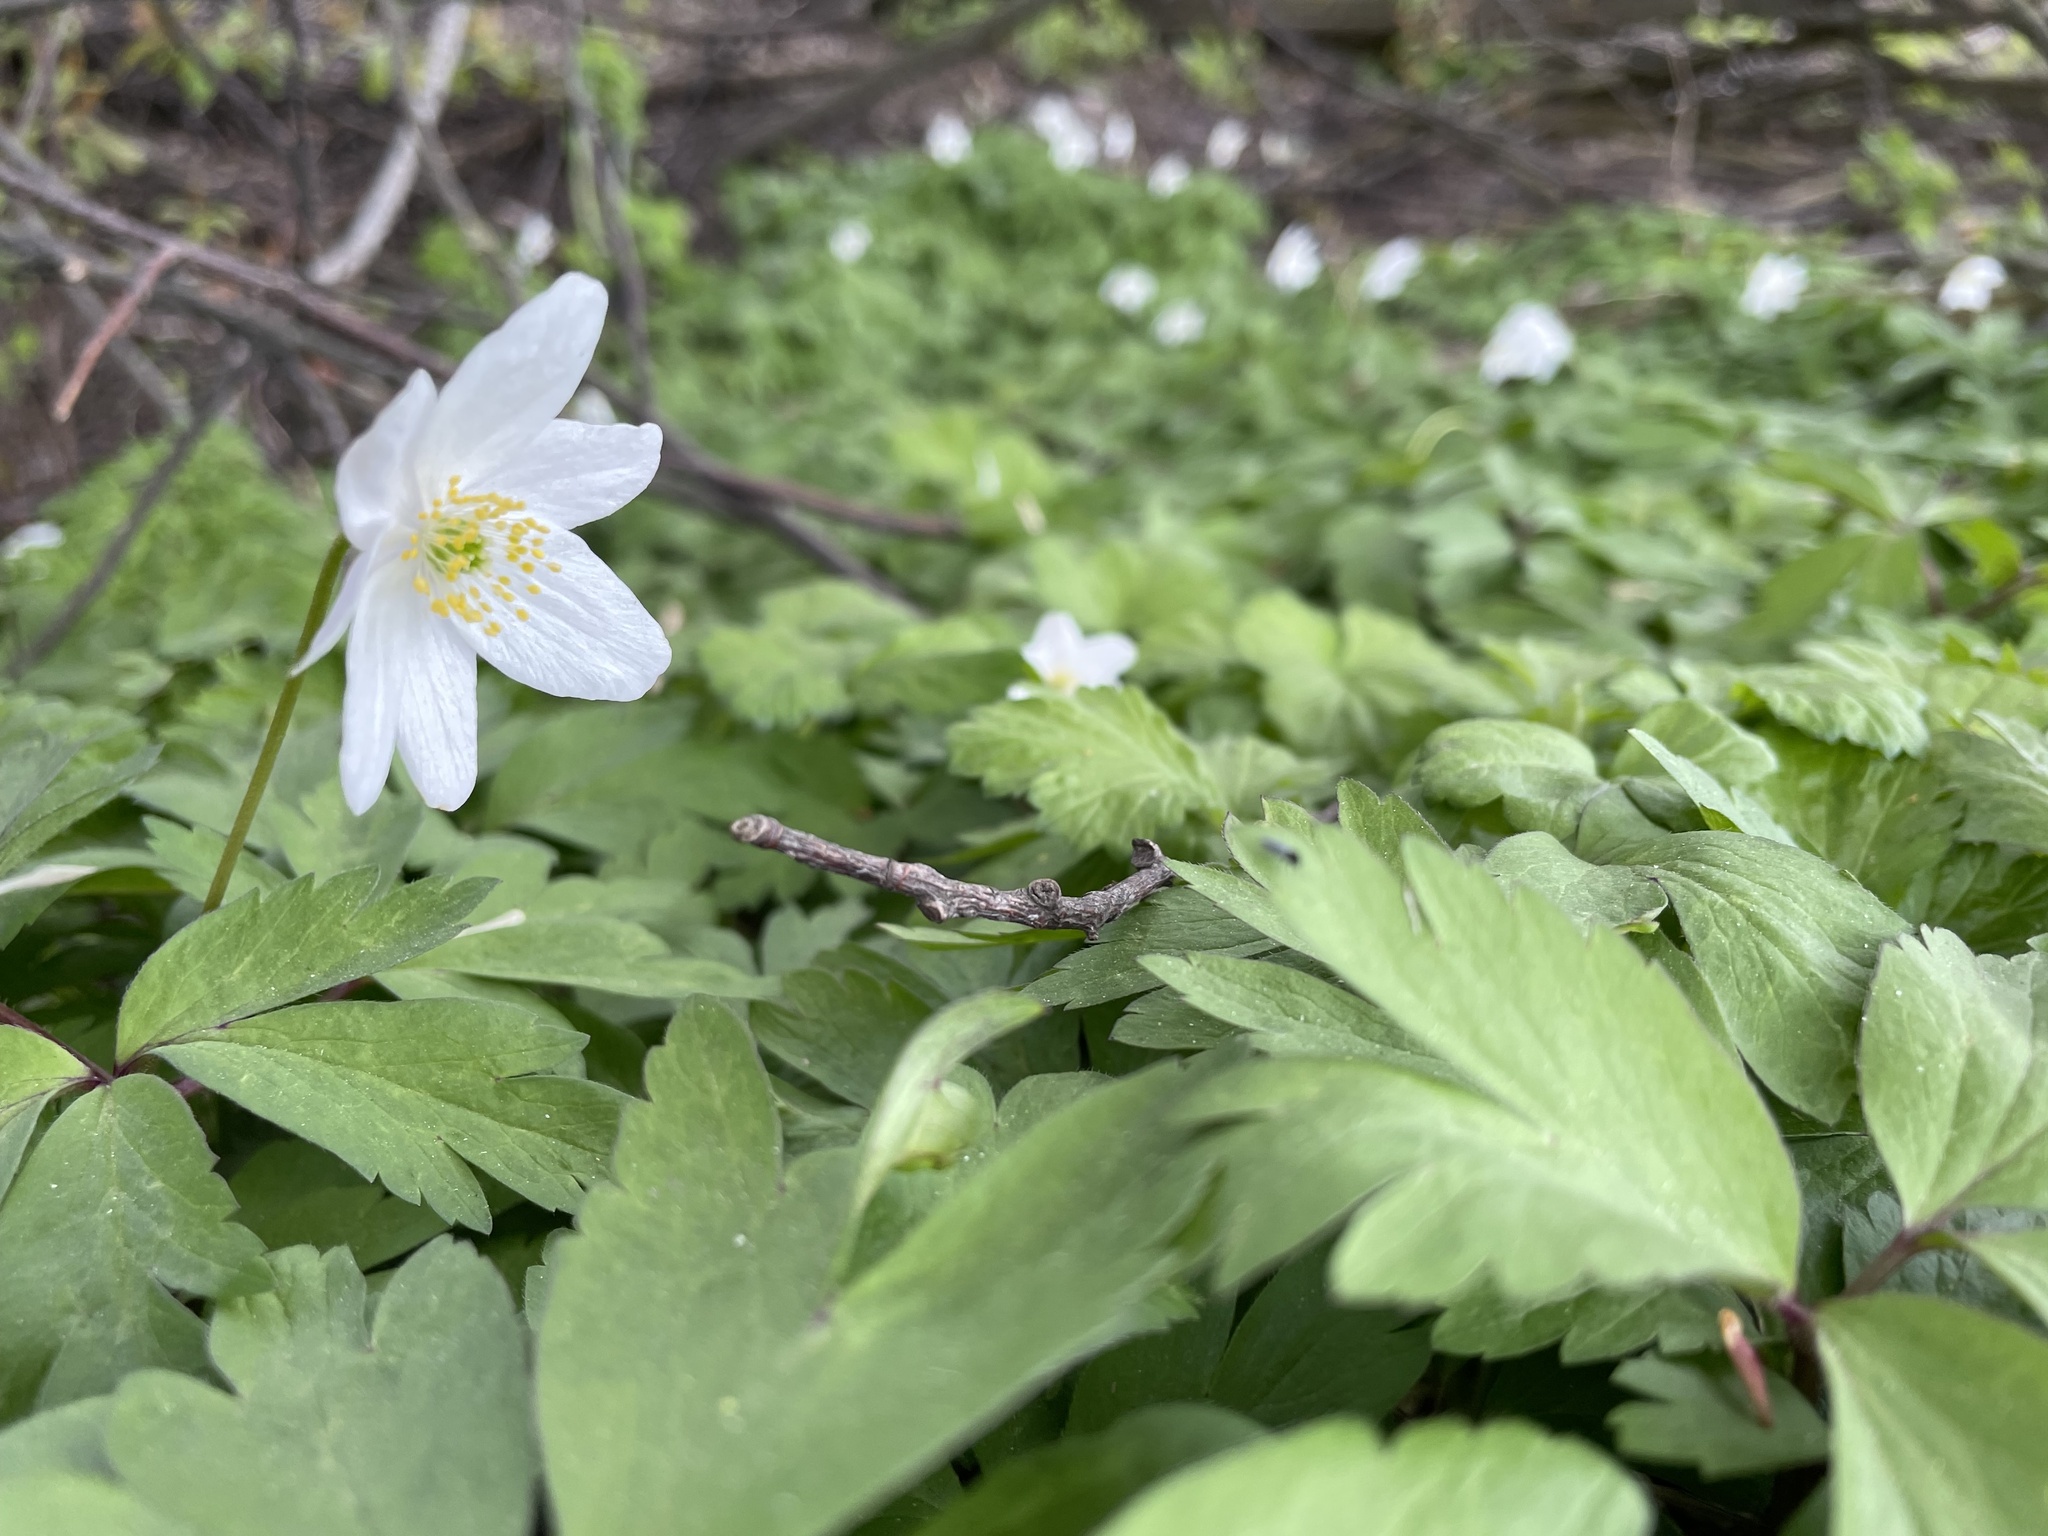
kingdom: Plantae
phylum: Tracheophyta
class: Magnoliopsida
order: Ranunculales
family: Ranunculaceae
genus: Anemone
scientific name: Anemone nemorosa
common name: Wood anemone
